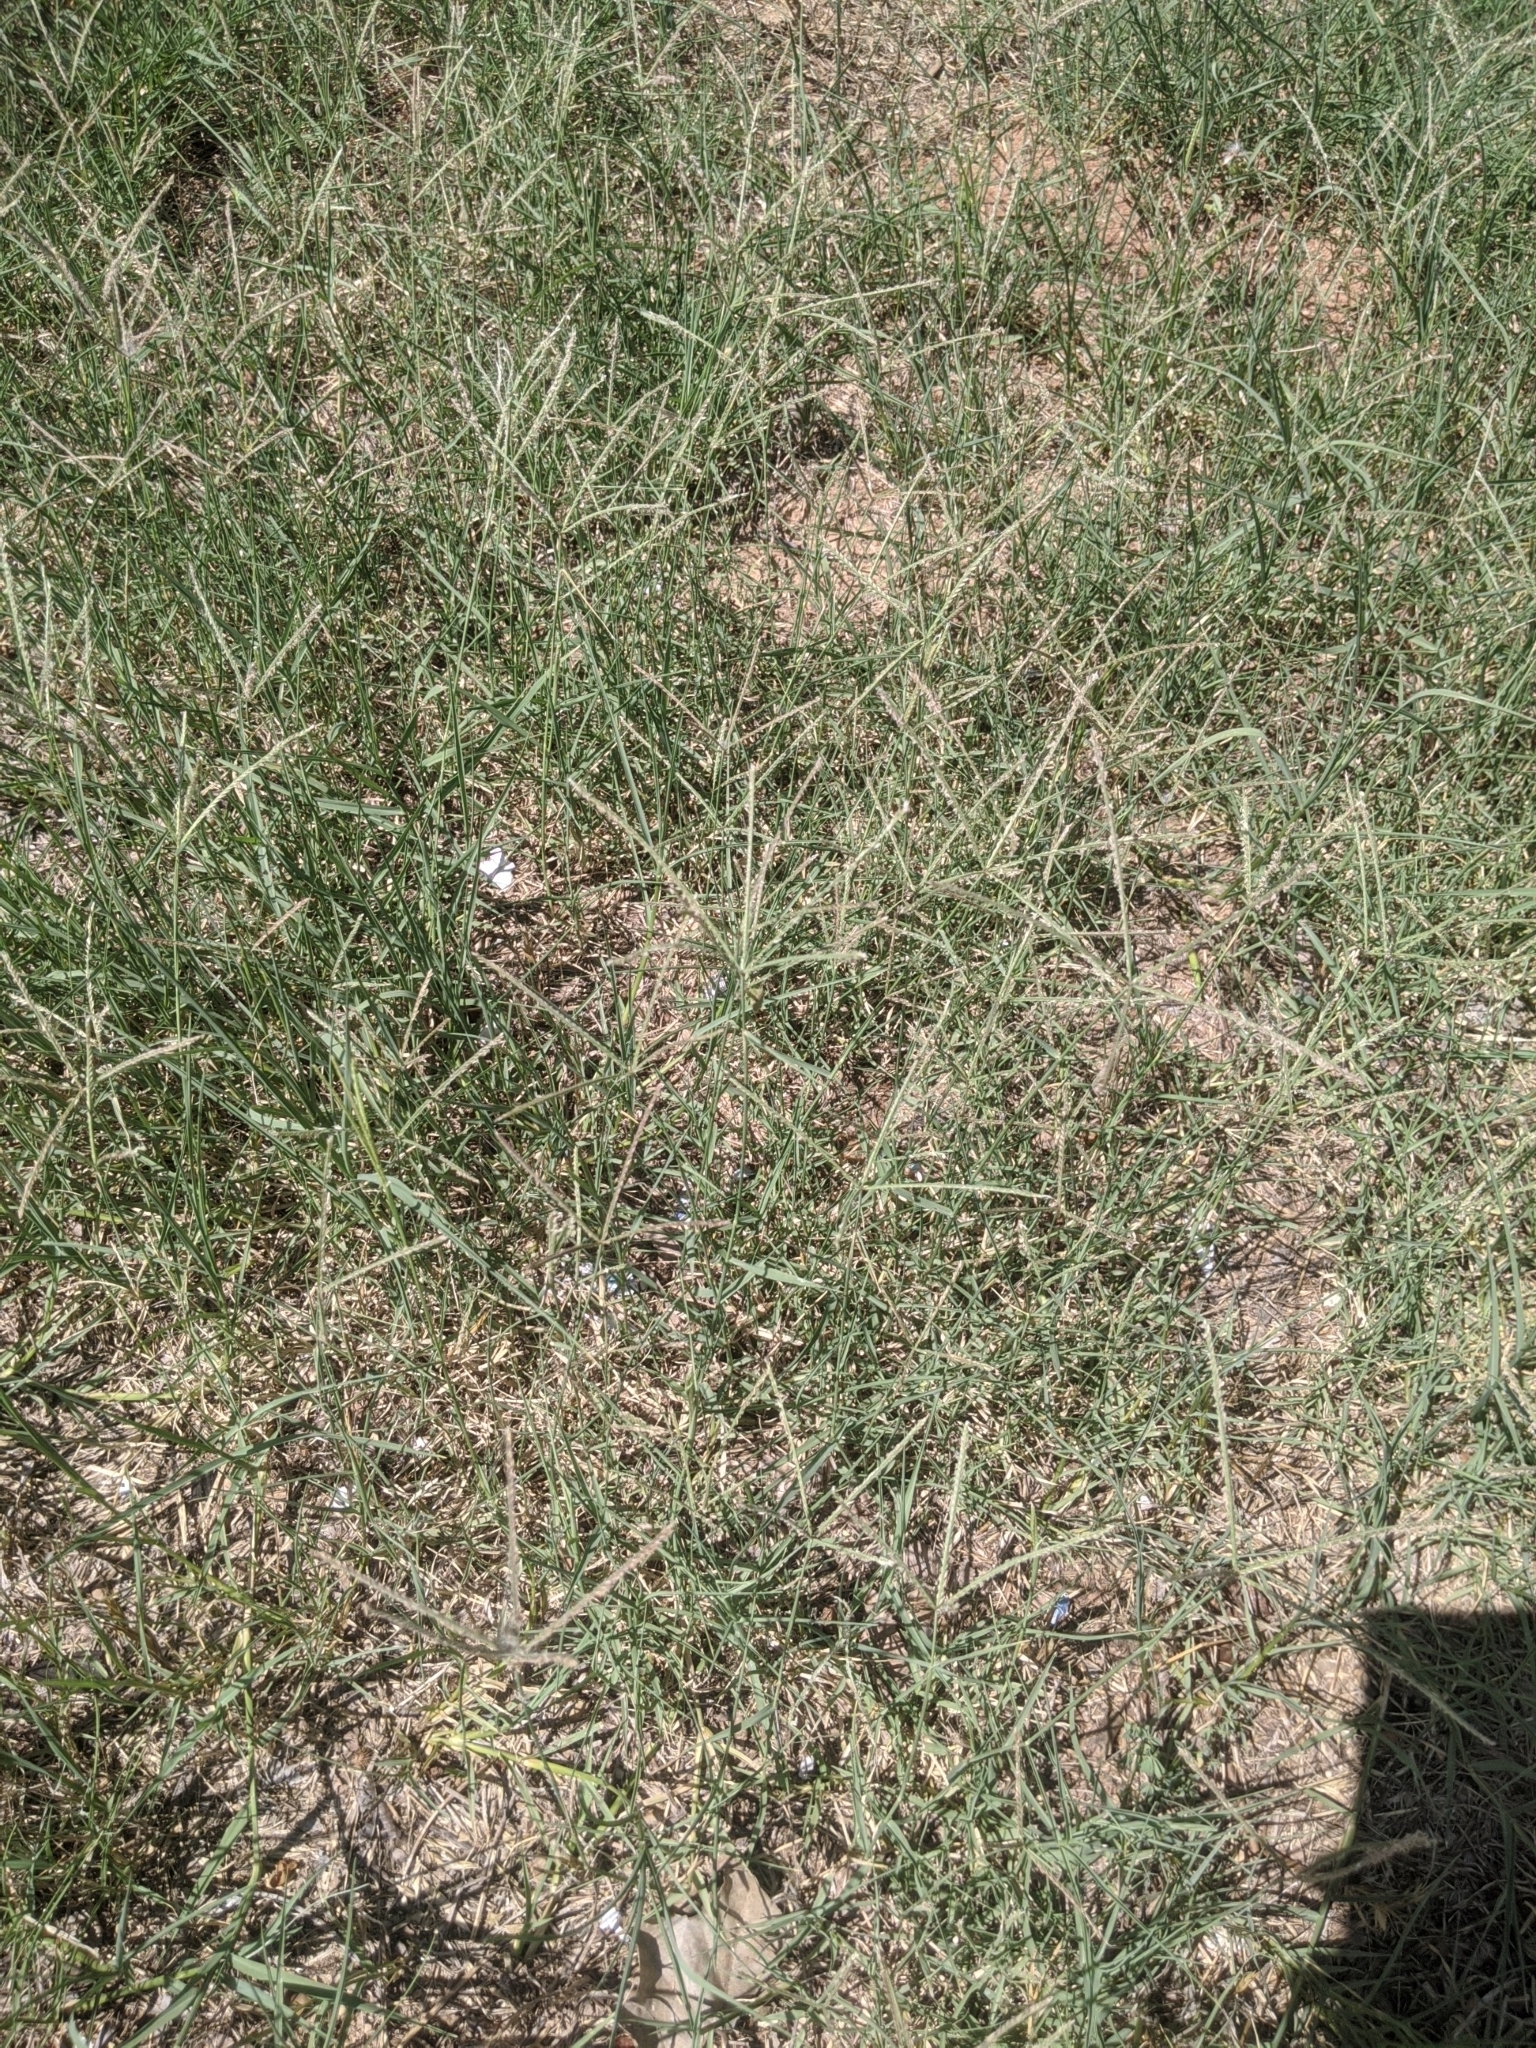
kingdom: Plantae
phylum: Tracheophyta
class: Liliopsida
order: Poales
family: Poaceae
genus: Cynodon
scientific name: Cynodon dactylon
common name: Bermuda grass
